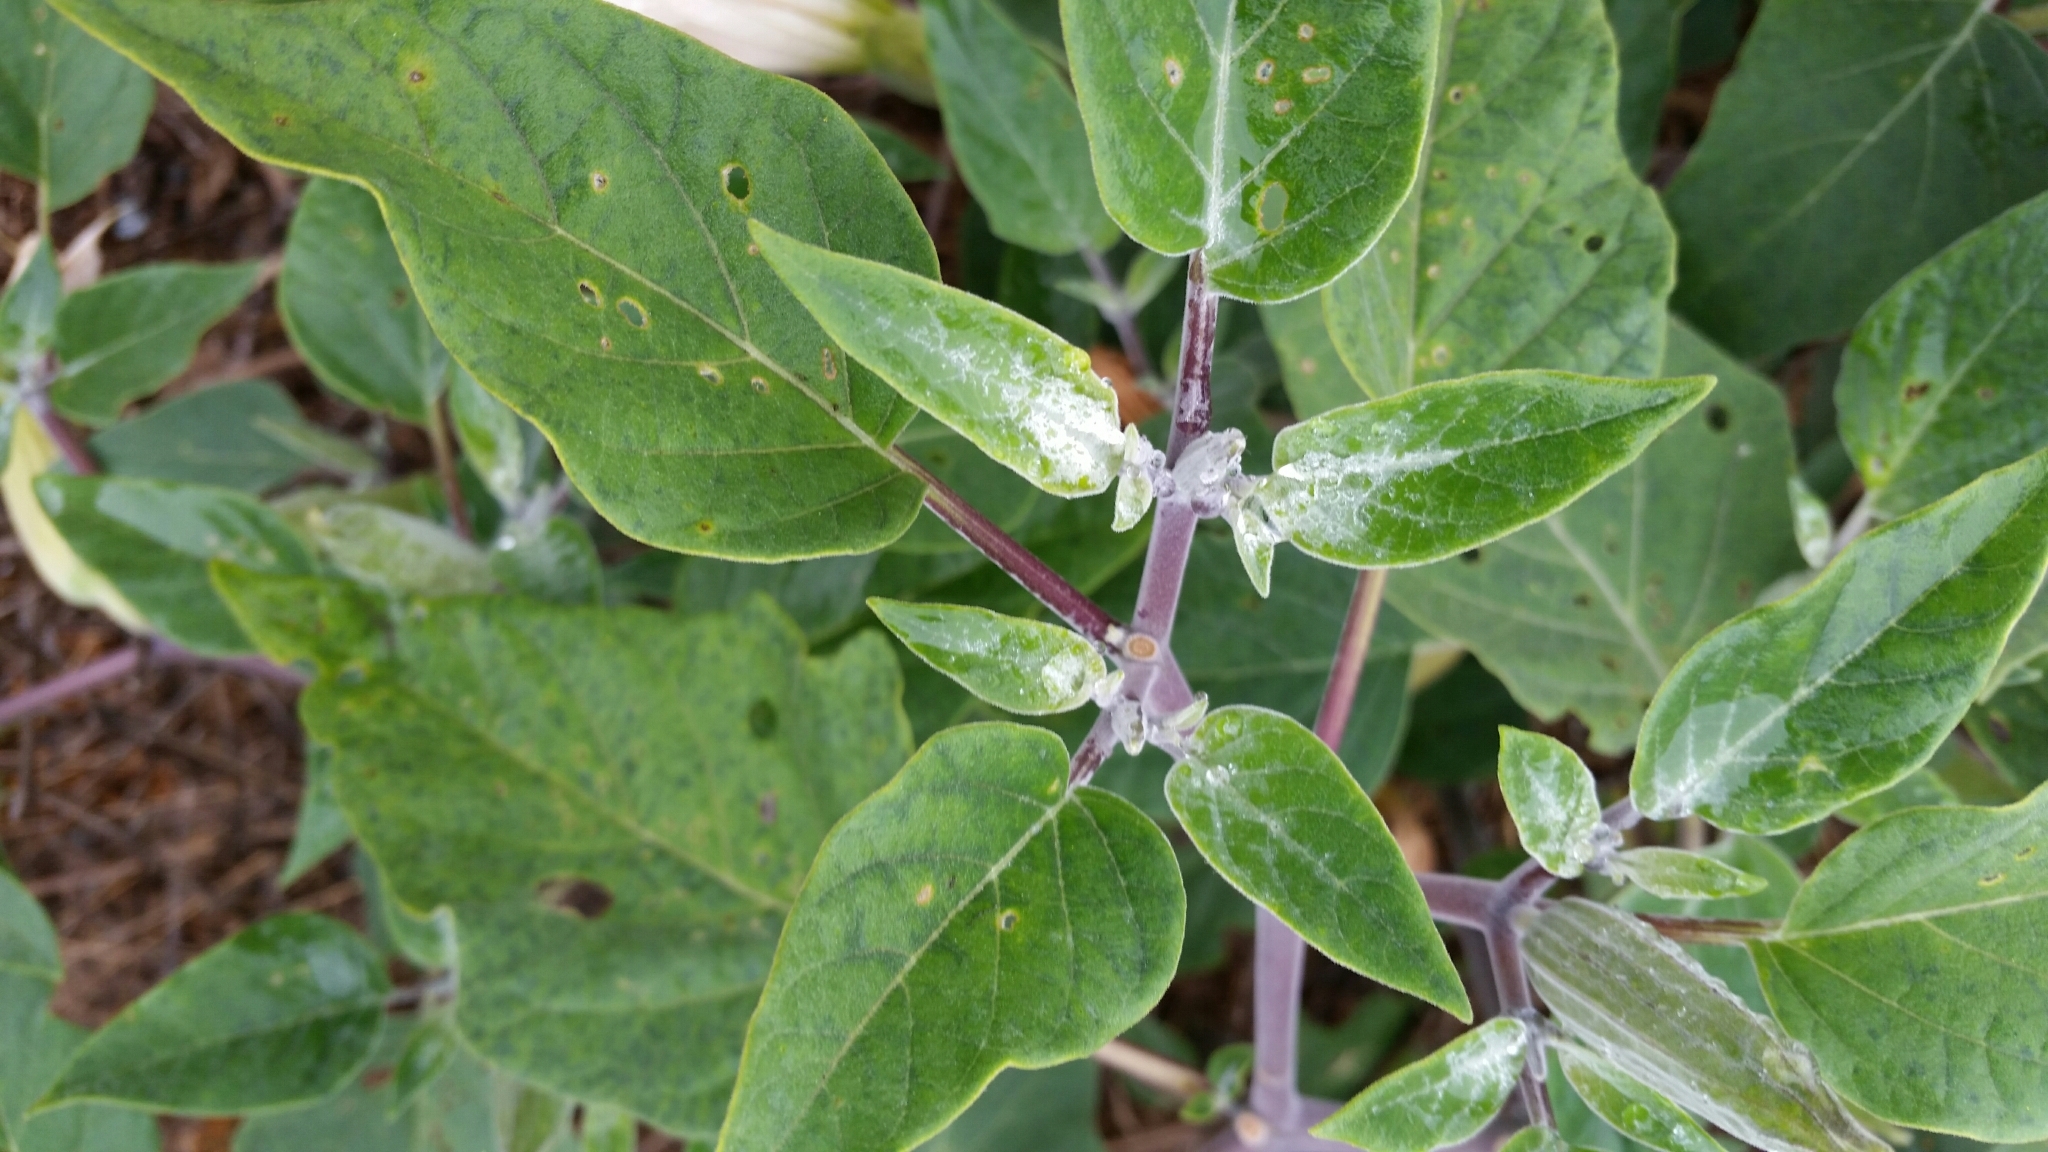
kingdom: Plantae
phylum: Tracheophyta
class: Magnoliopsida
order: Solanales
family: Solanaceae
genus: Datura
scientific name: Datura wrightii
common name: Sacred thorn-apple
